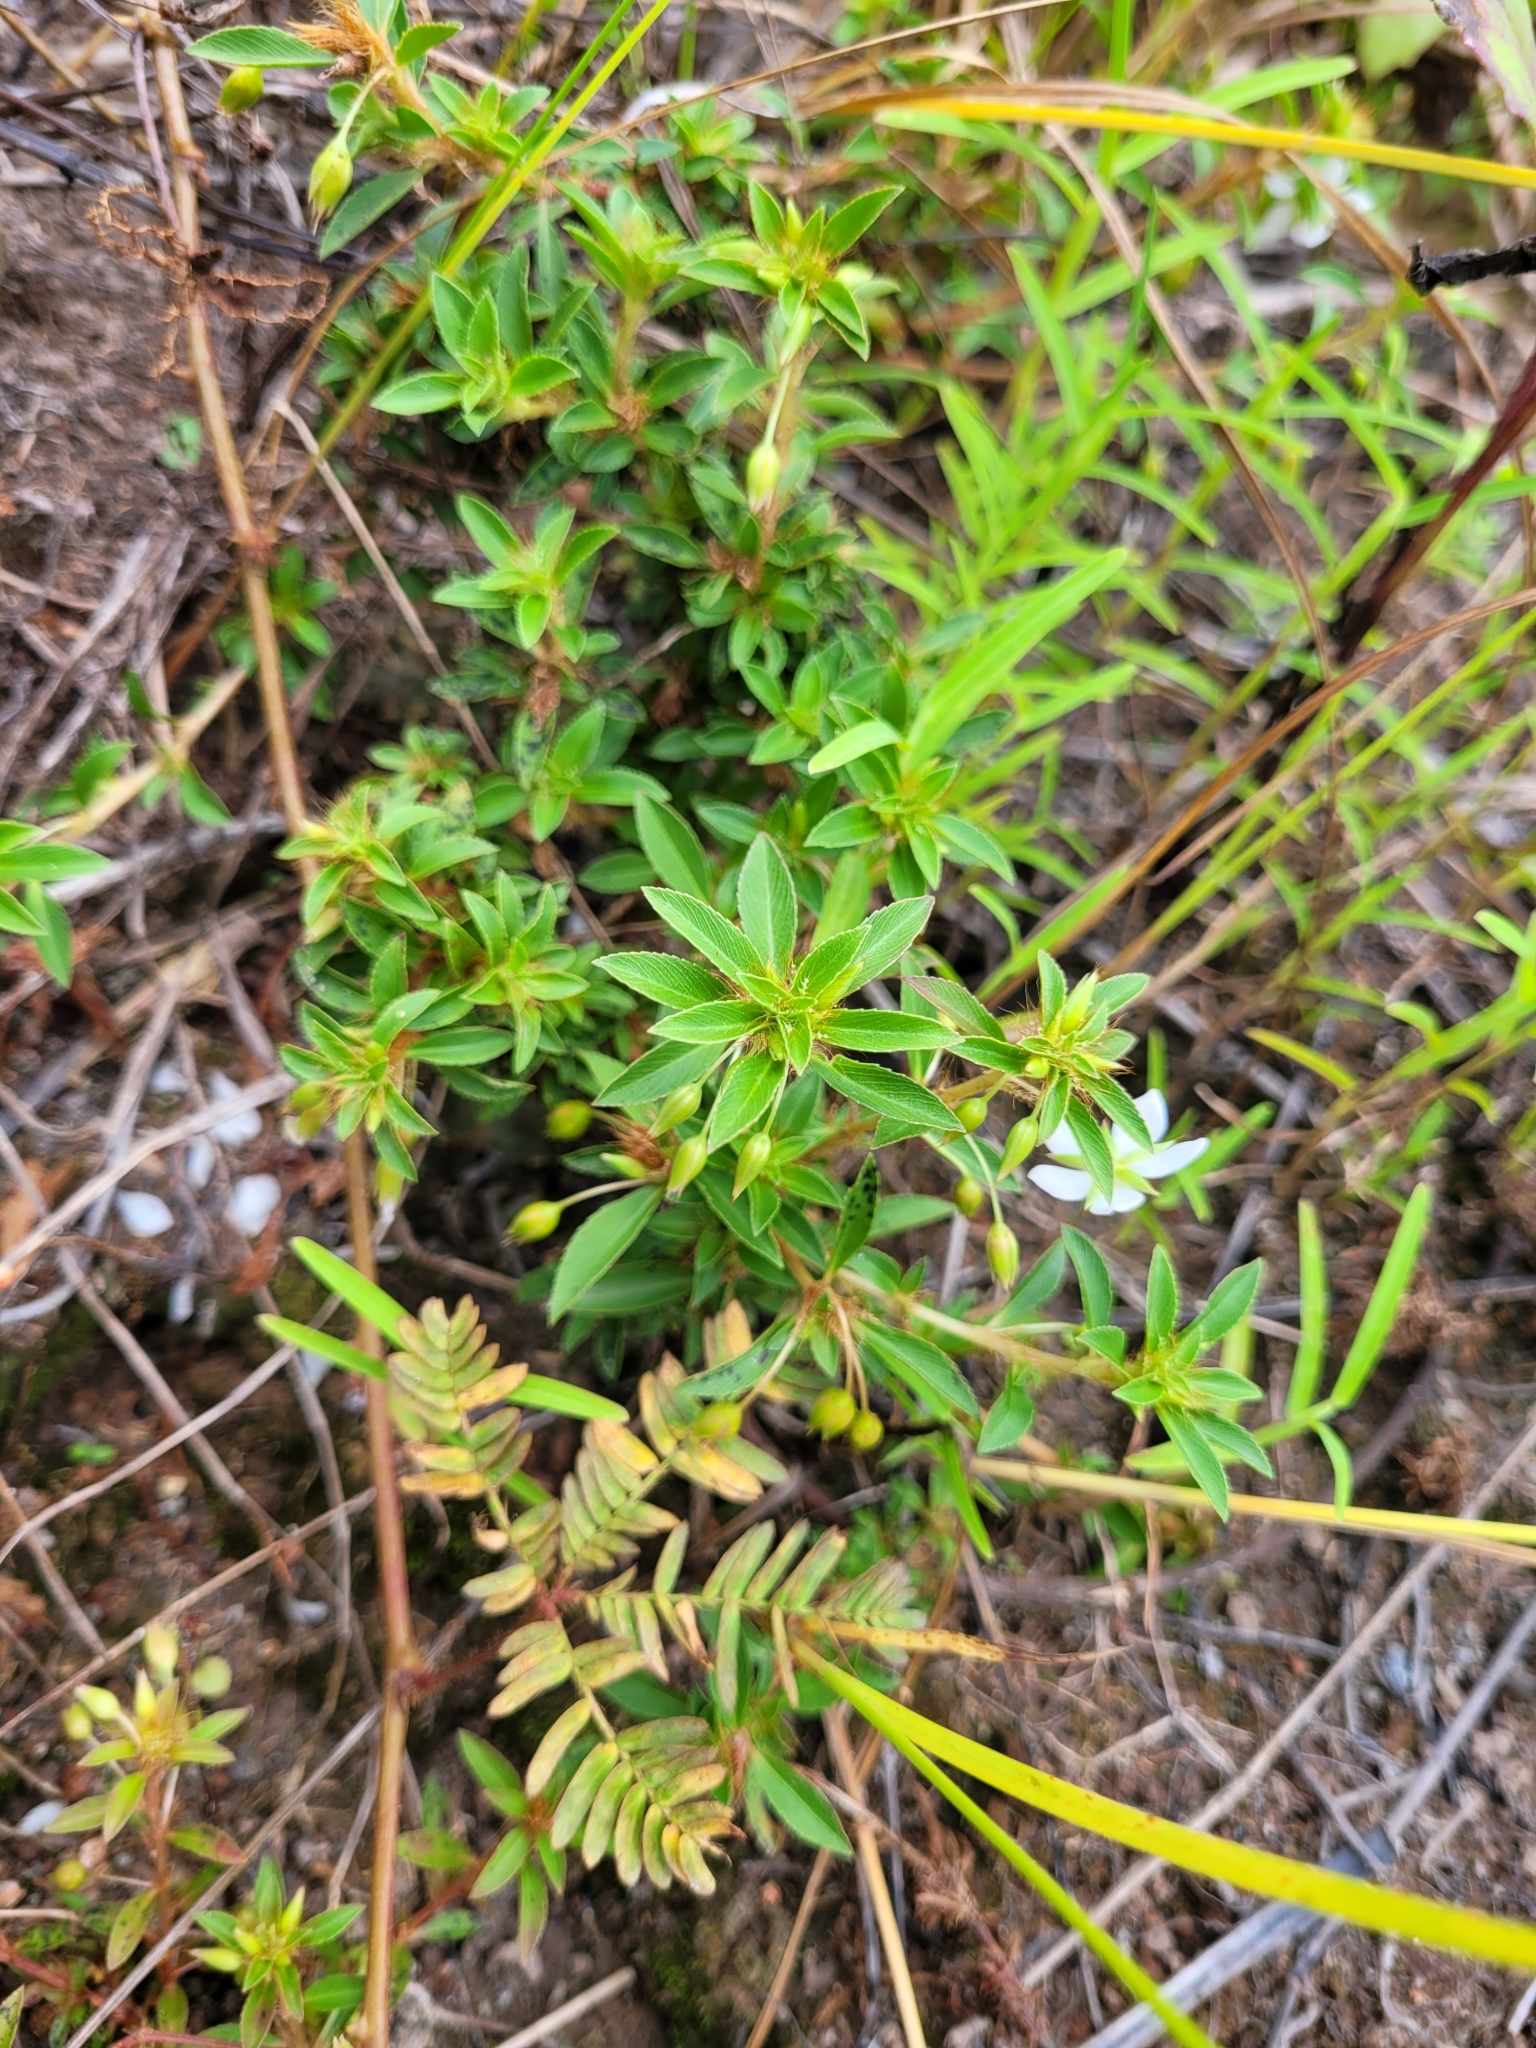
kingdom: Plantae
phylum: Tracheophyta
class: Magnoliopsida
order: Malpighiales
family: Ochnaceae
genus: Sauvagesia
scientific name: Sauvagesia erecta
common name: Creole tea
